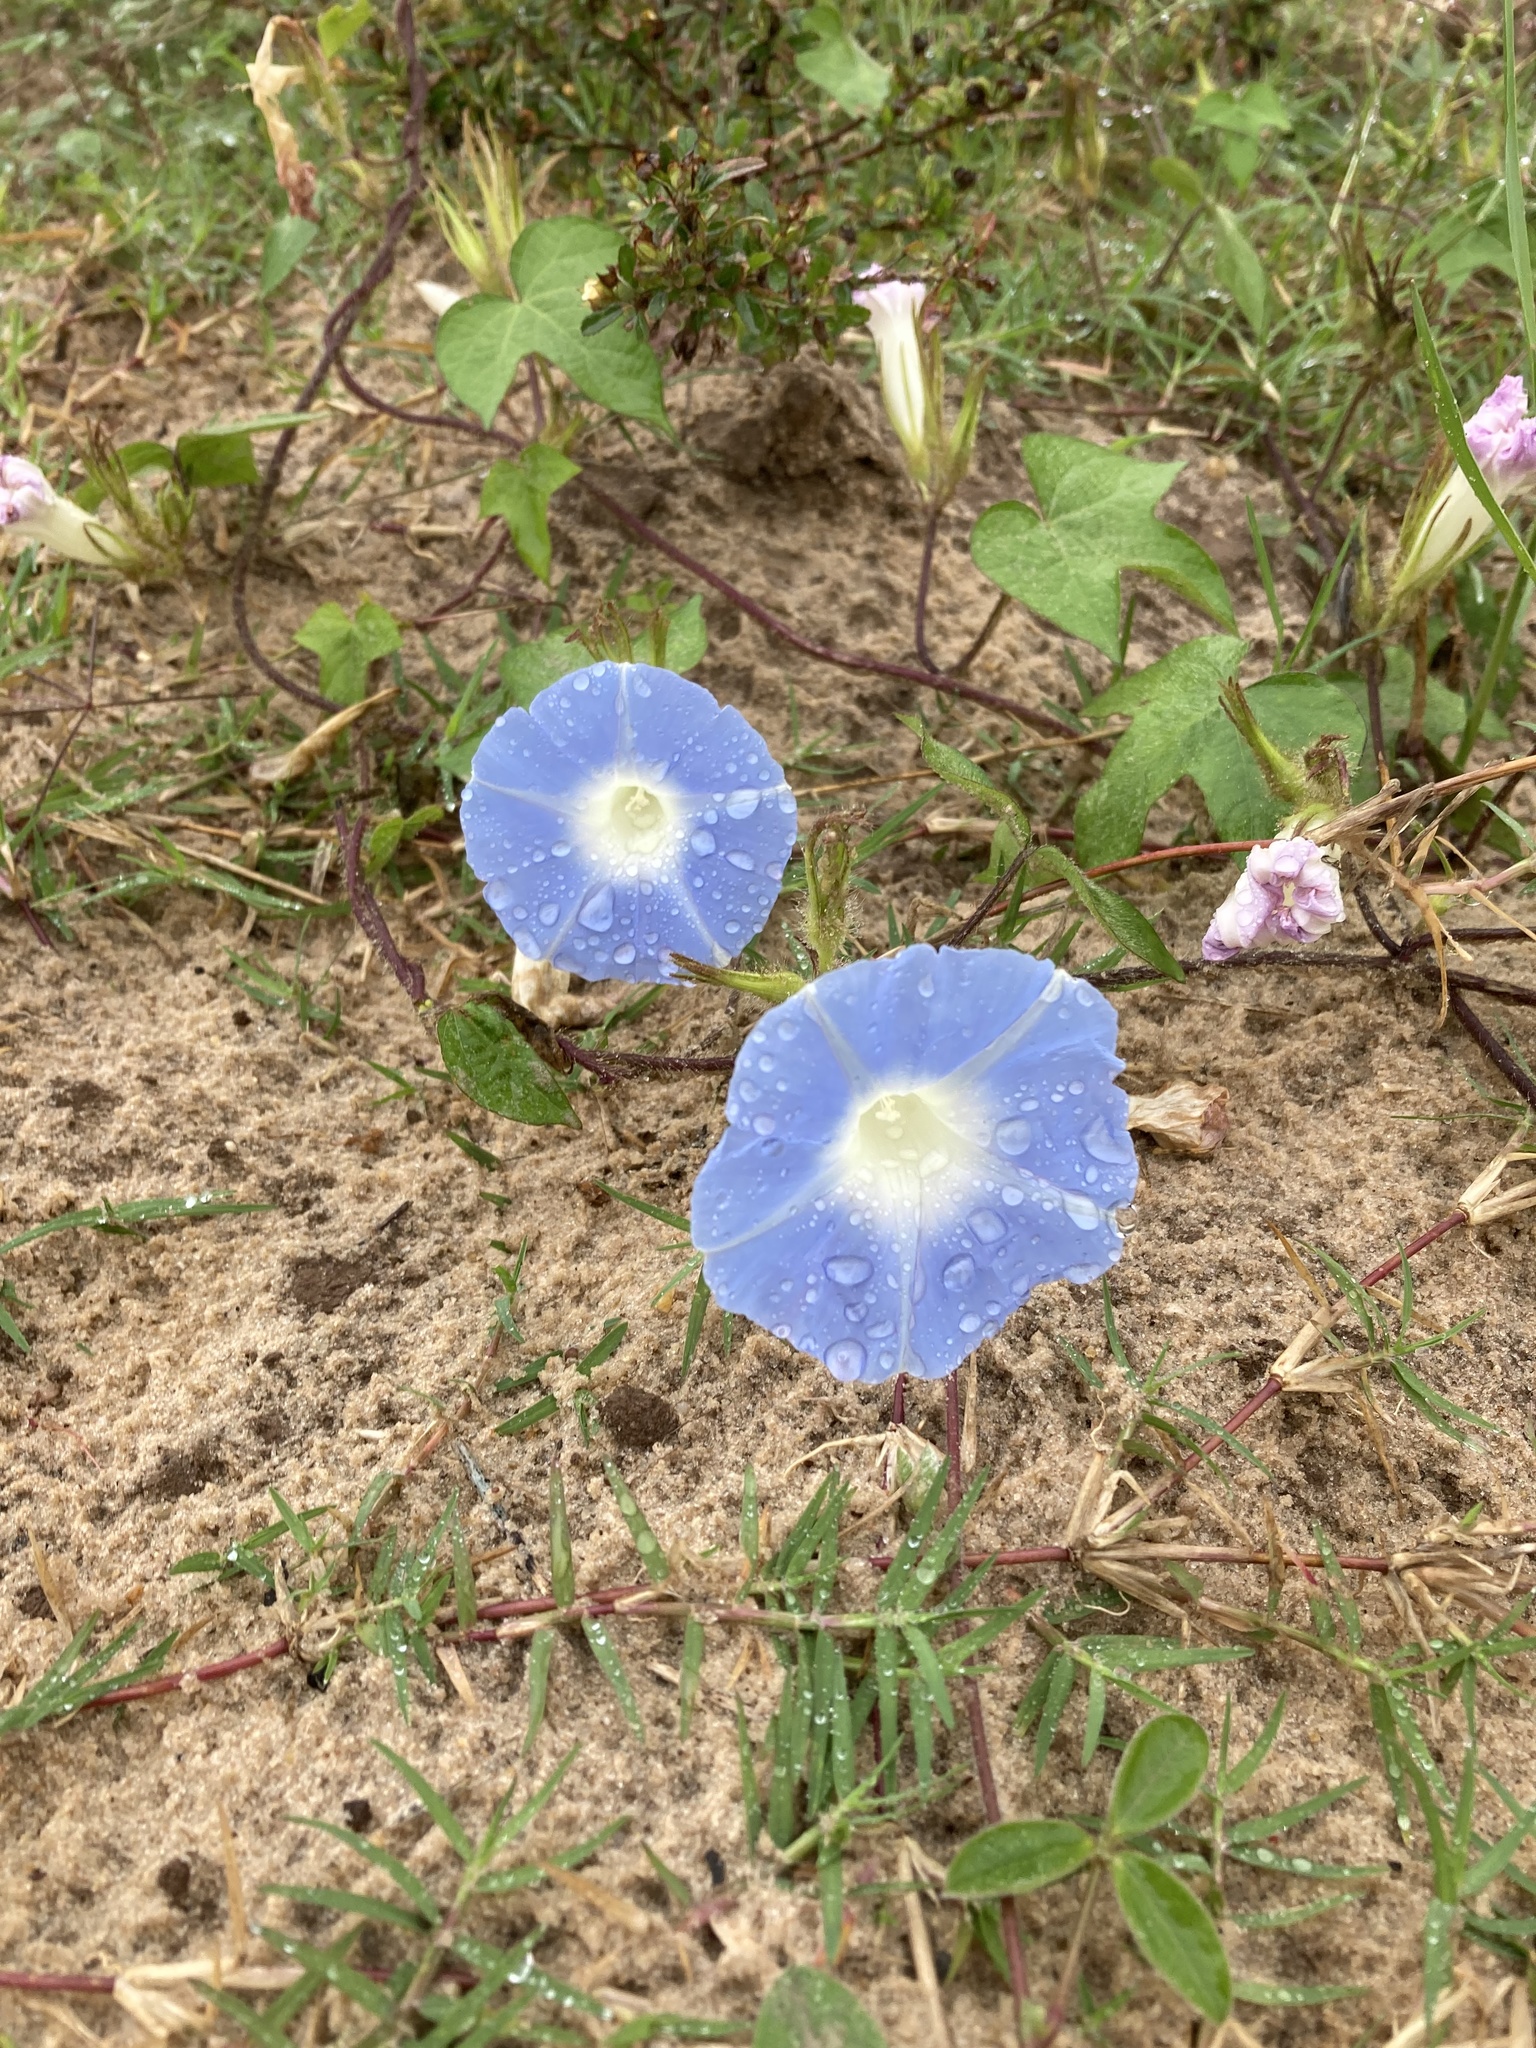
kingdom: Plantae
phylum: Tracheophyta
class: Magnoliopsida
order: Solanales
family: Convolvulaceae
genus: Ipomoea
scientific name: Ipomoea nil
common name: Japanese morning-glory
